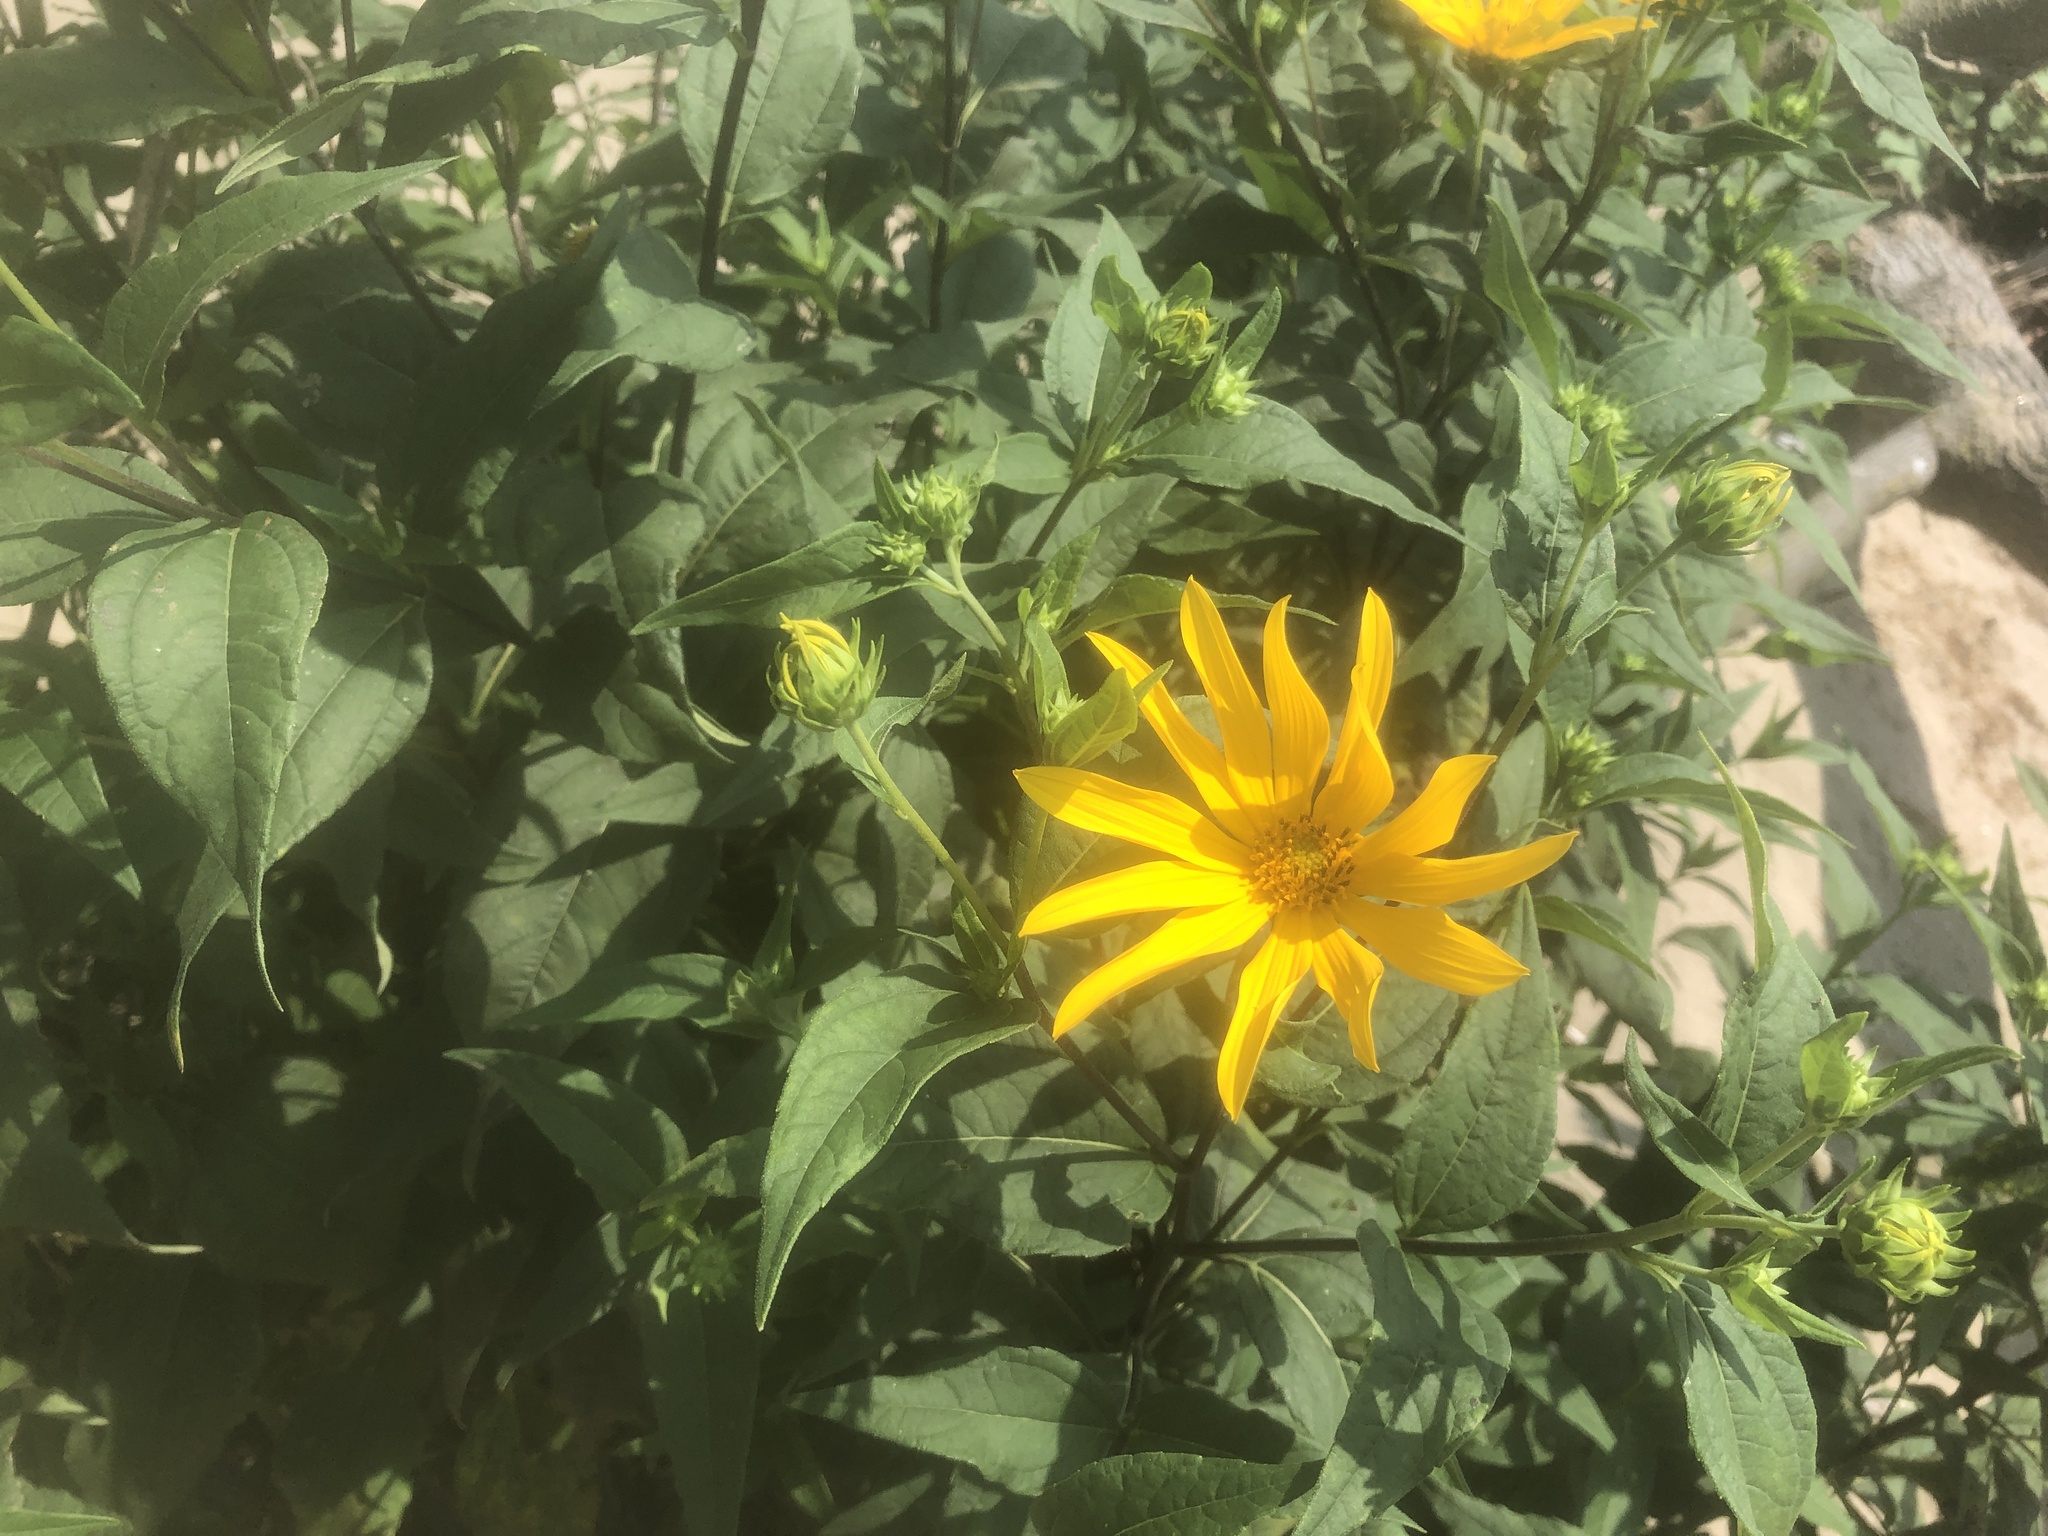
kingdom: Plantae
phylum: Tracheophyta
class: Magnoliopsida
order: Asterales
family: Asteraceae
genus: Helianthus
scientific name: Helianthus tuberosus
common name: Jerusalem artichoke
